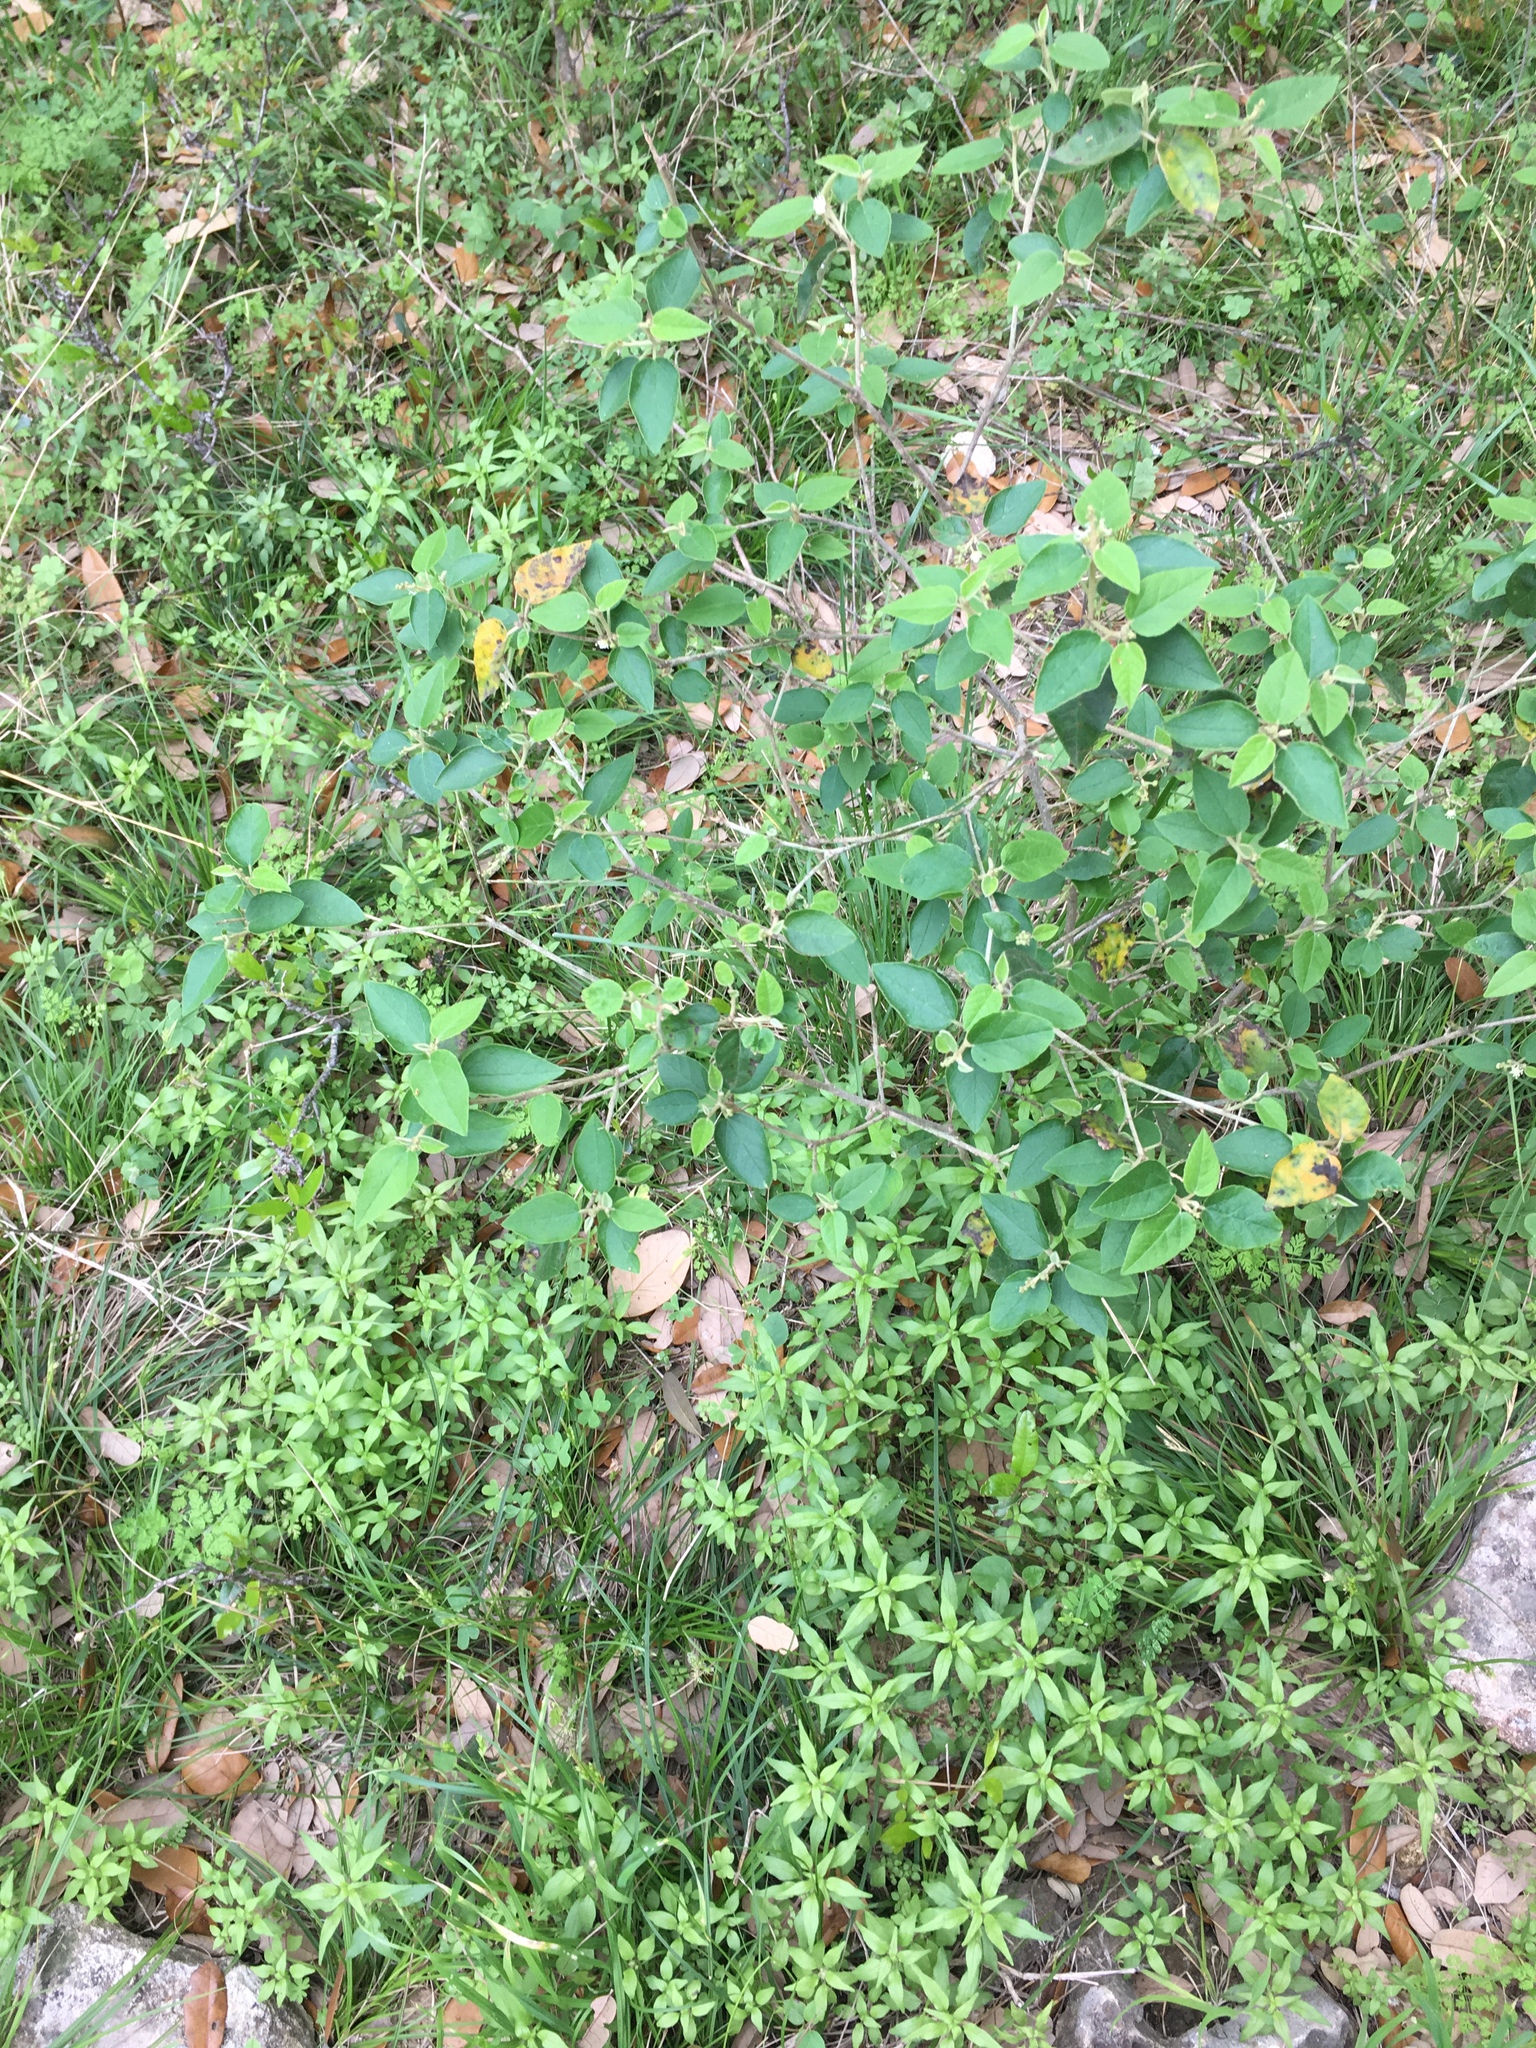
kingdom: Plantae
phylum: Tracheophyta
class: Magnoliopsida
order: Malpighiales
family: Euphorbiaceae
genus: Croton
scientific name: Croton fruticulosus
